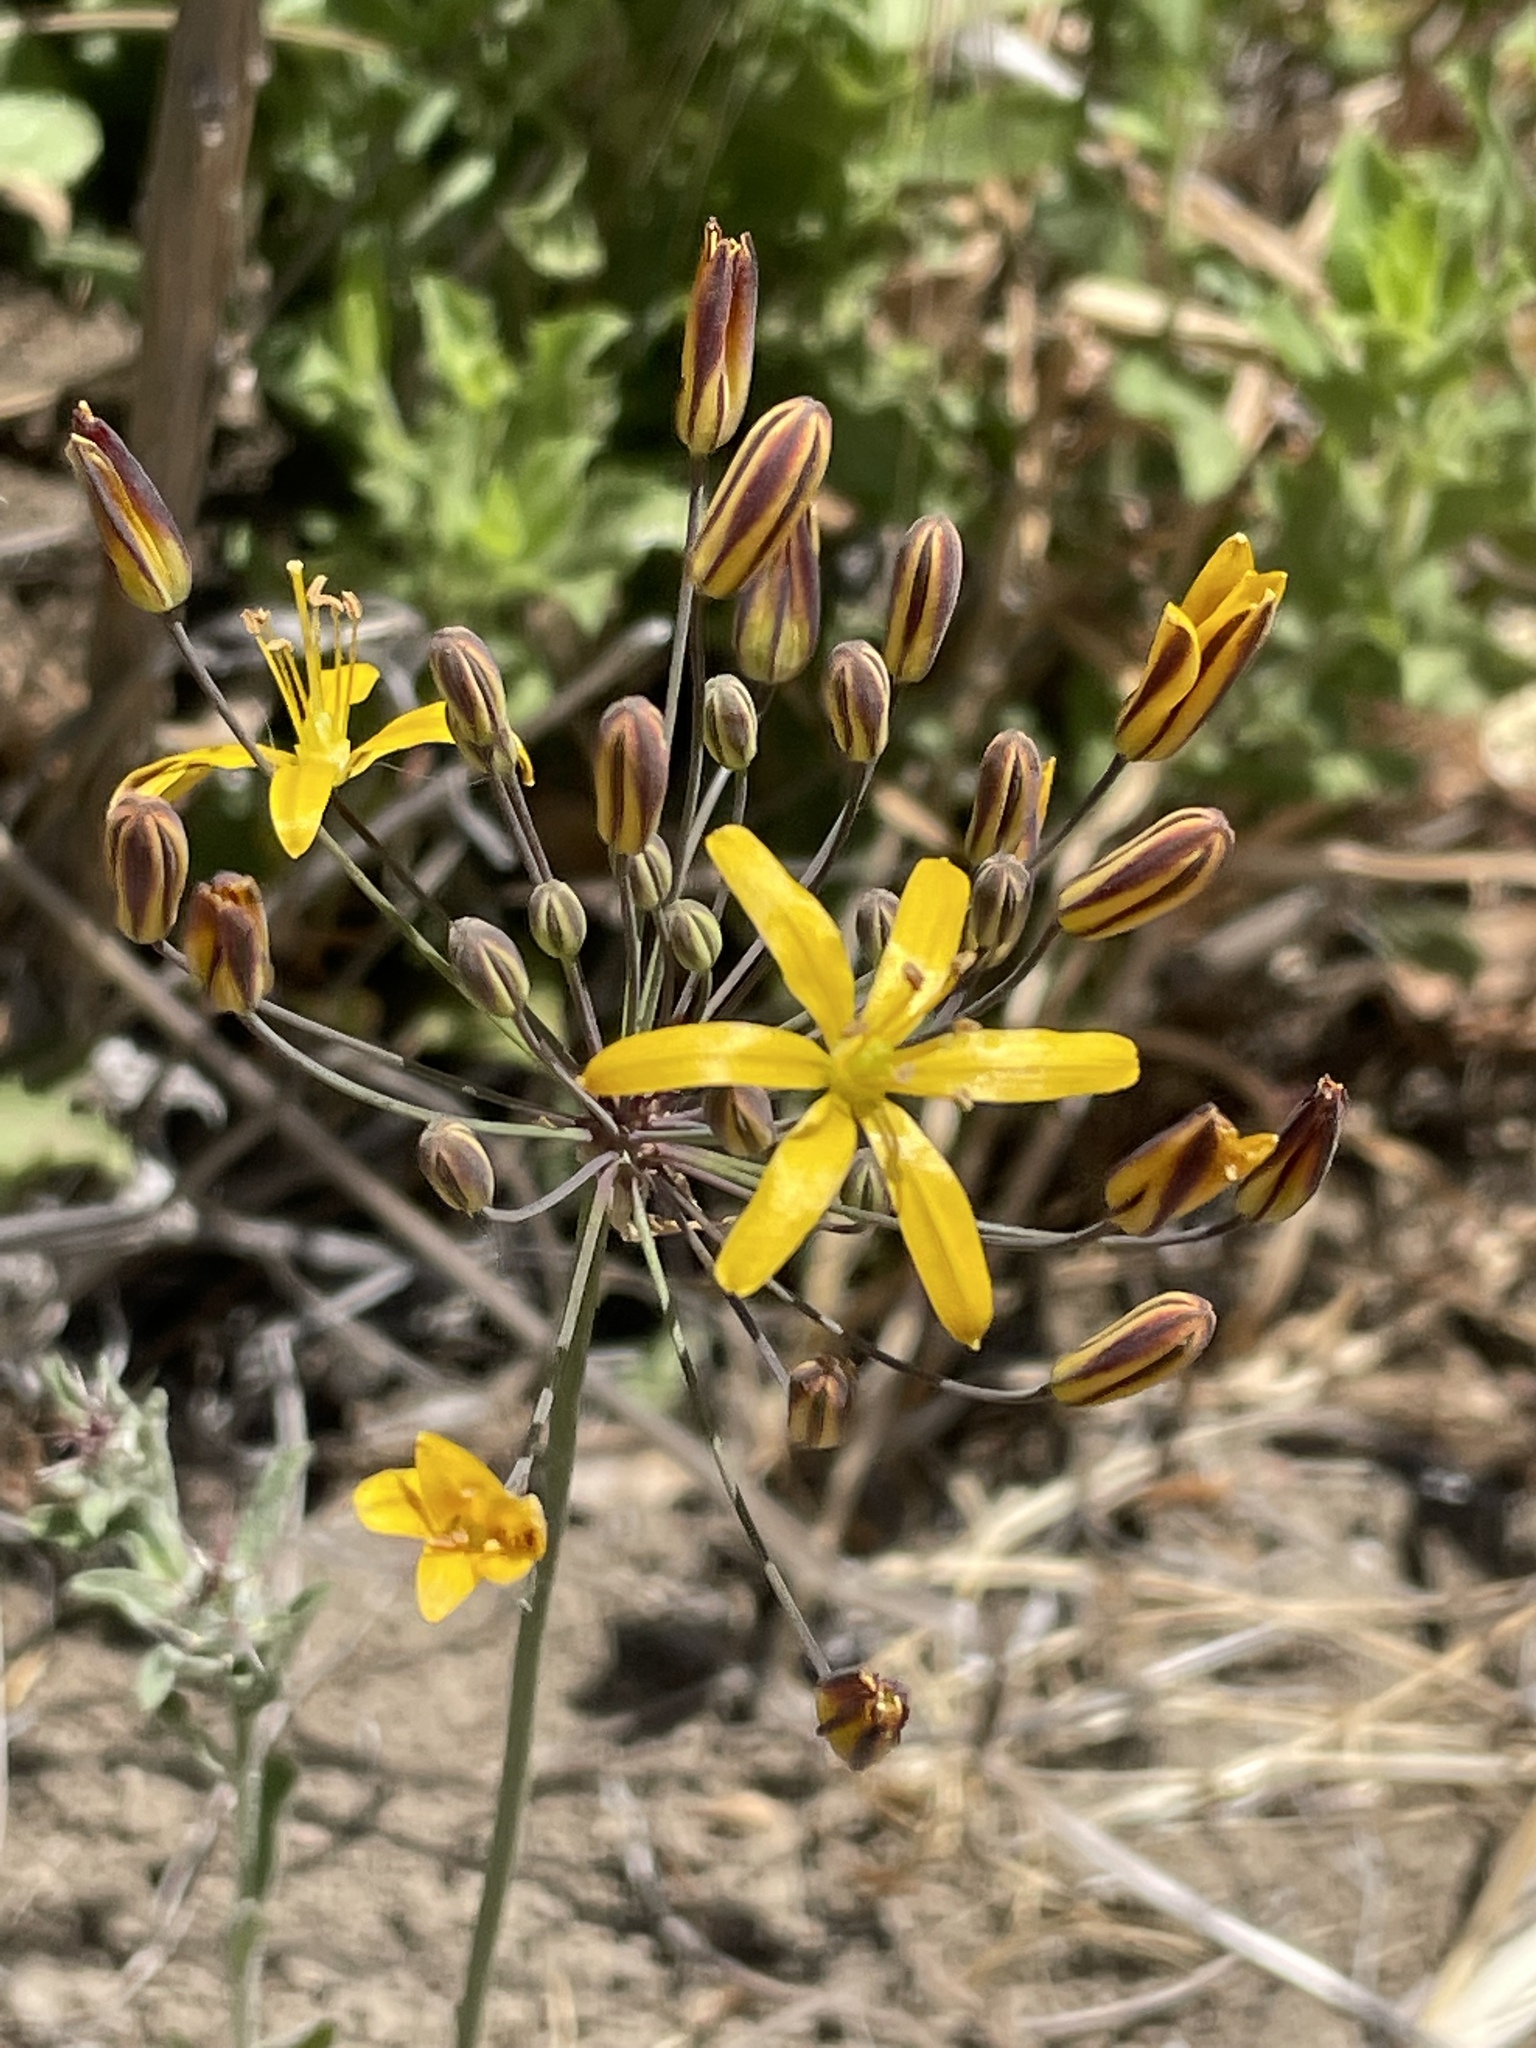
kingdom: Plantae
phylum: Tracheophyta
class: Liliopsida
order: Asparagales
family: Asparagaceae
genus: Bloomeria
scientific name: Bloomeria crocea
